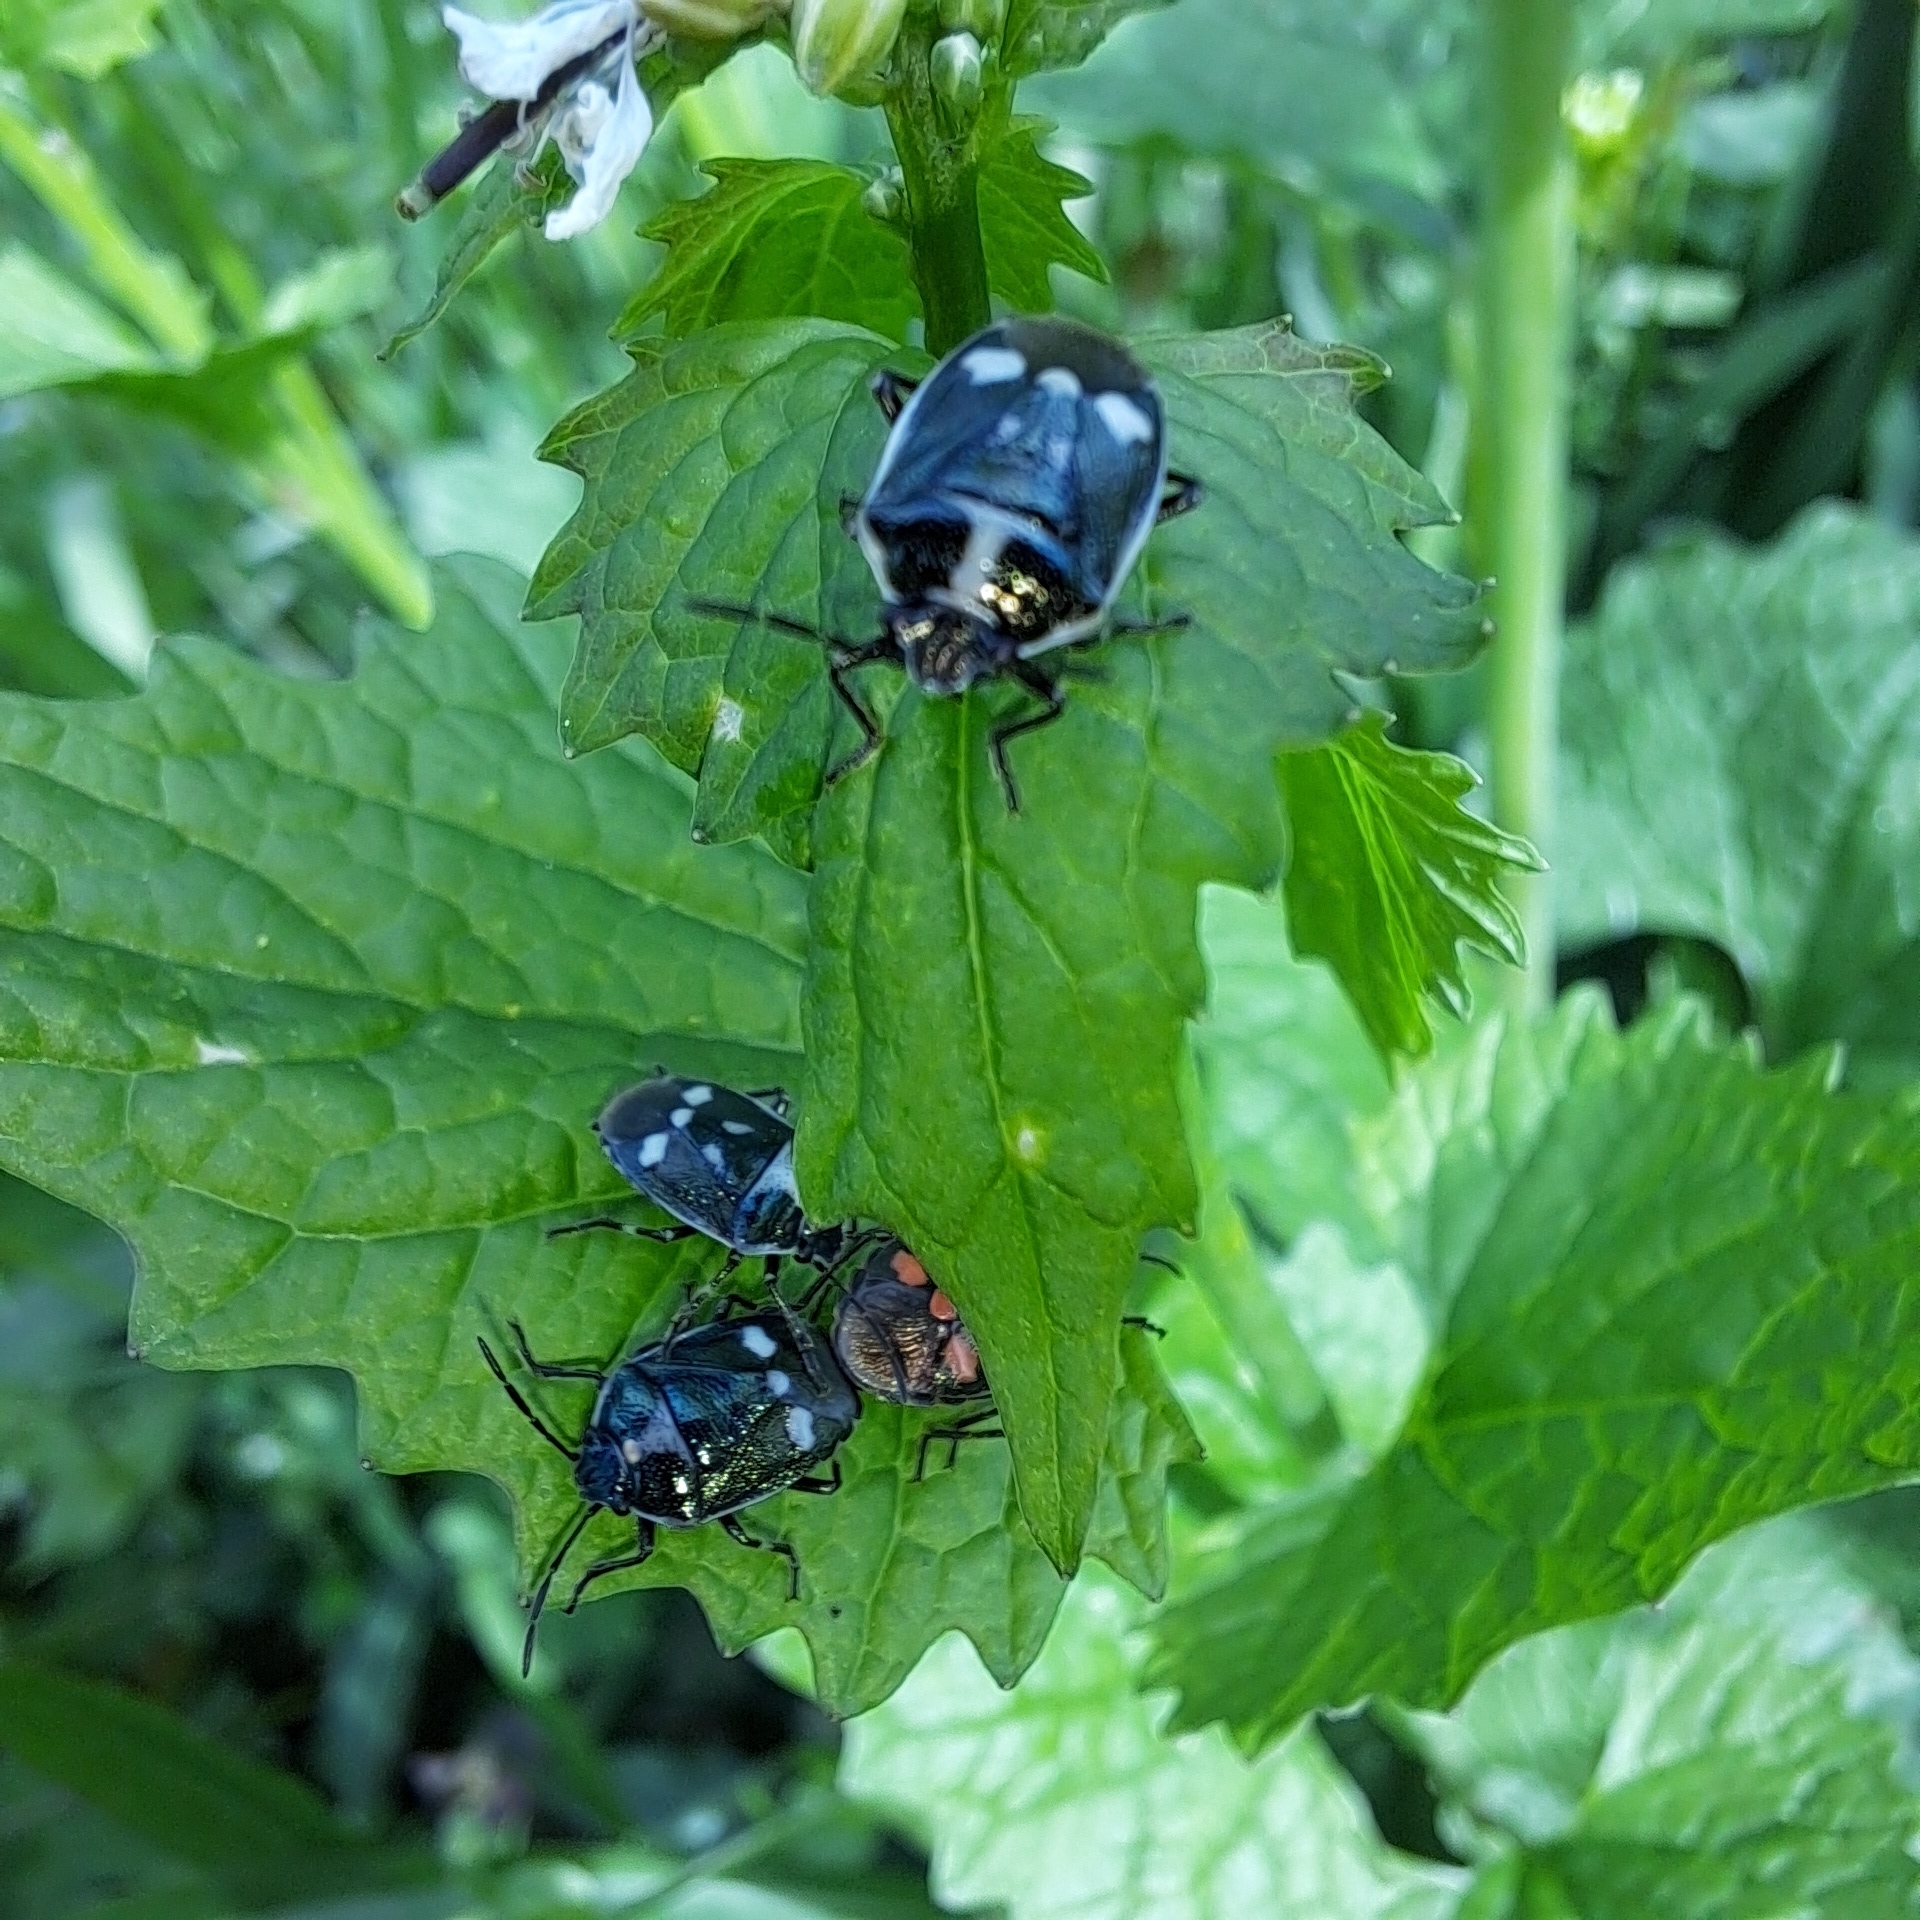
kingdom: Animalia
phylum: Arthropoda
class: Insecta
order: Hemiptera
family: Pentatomidae
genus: Eurydema
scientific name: Eurydema oleracea
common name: Cabbage bug
